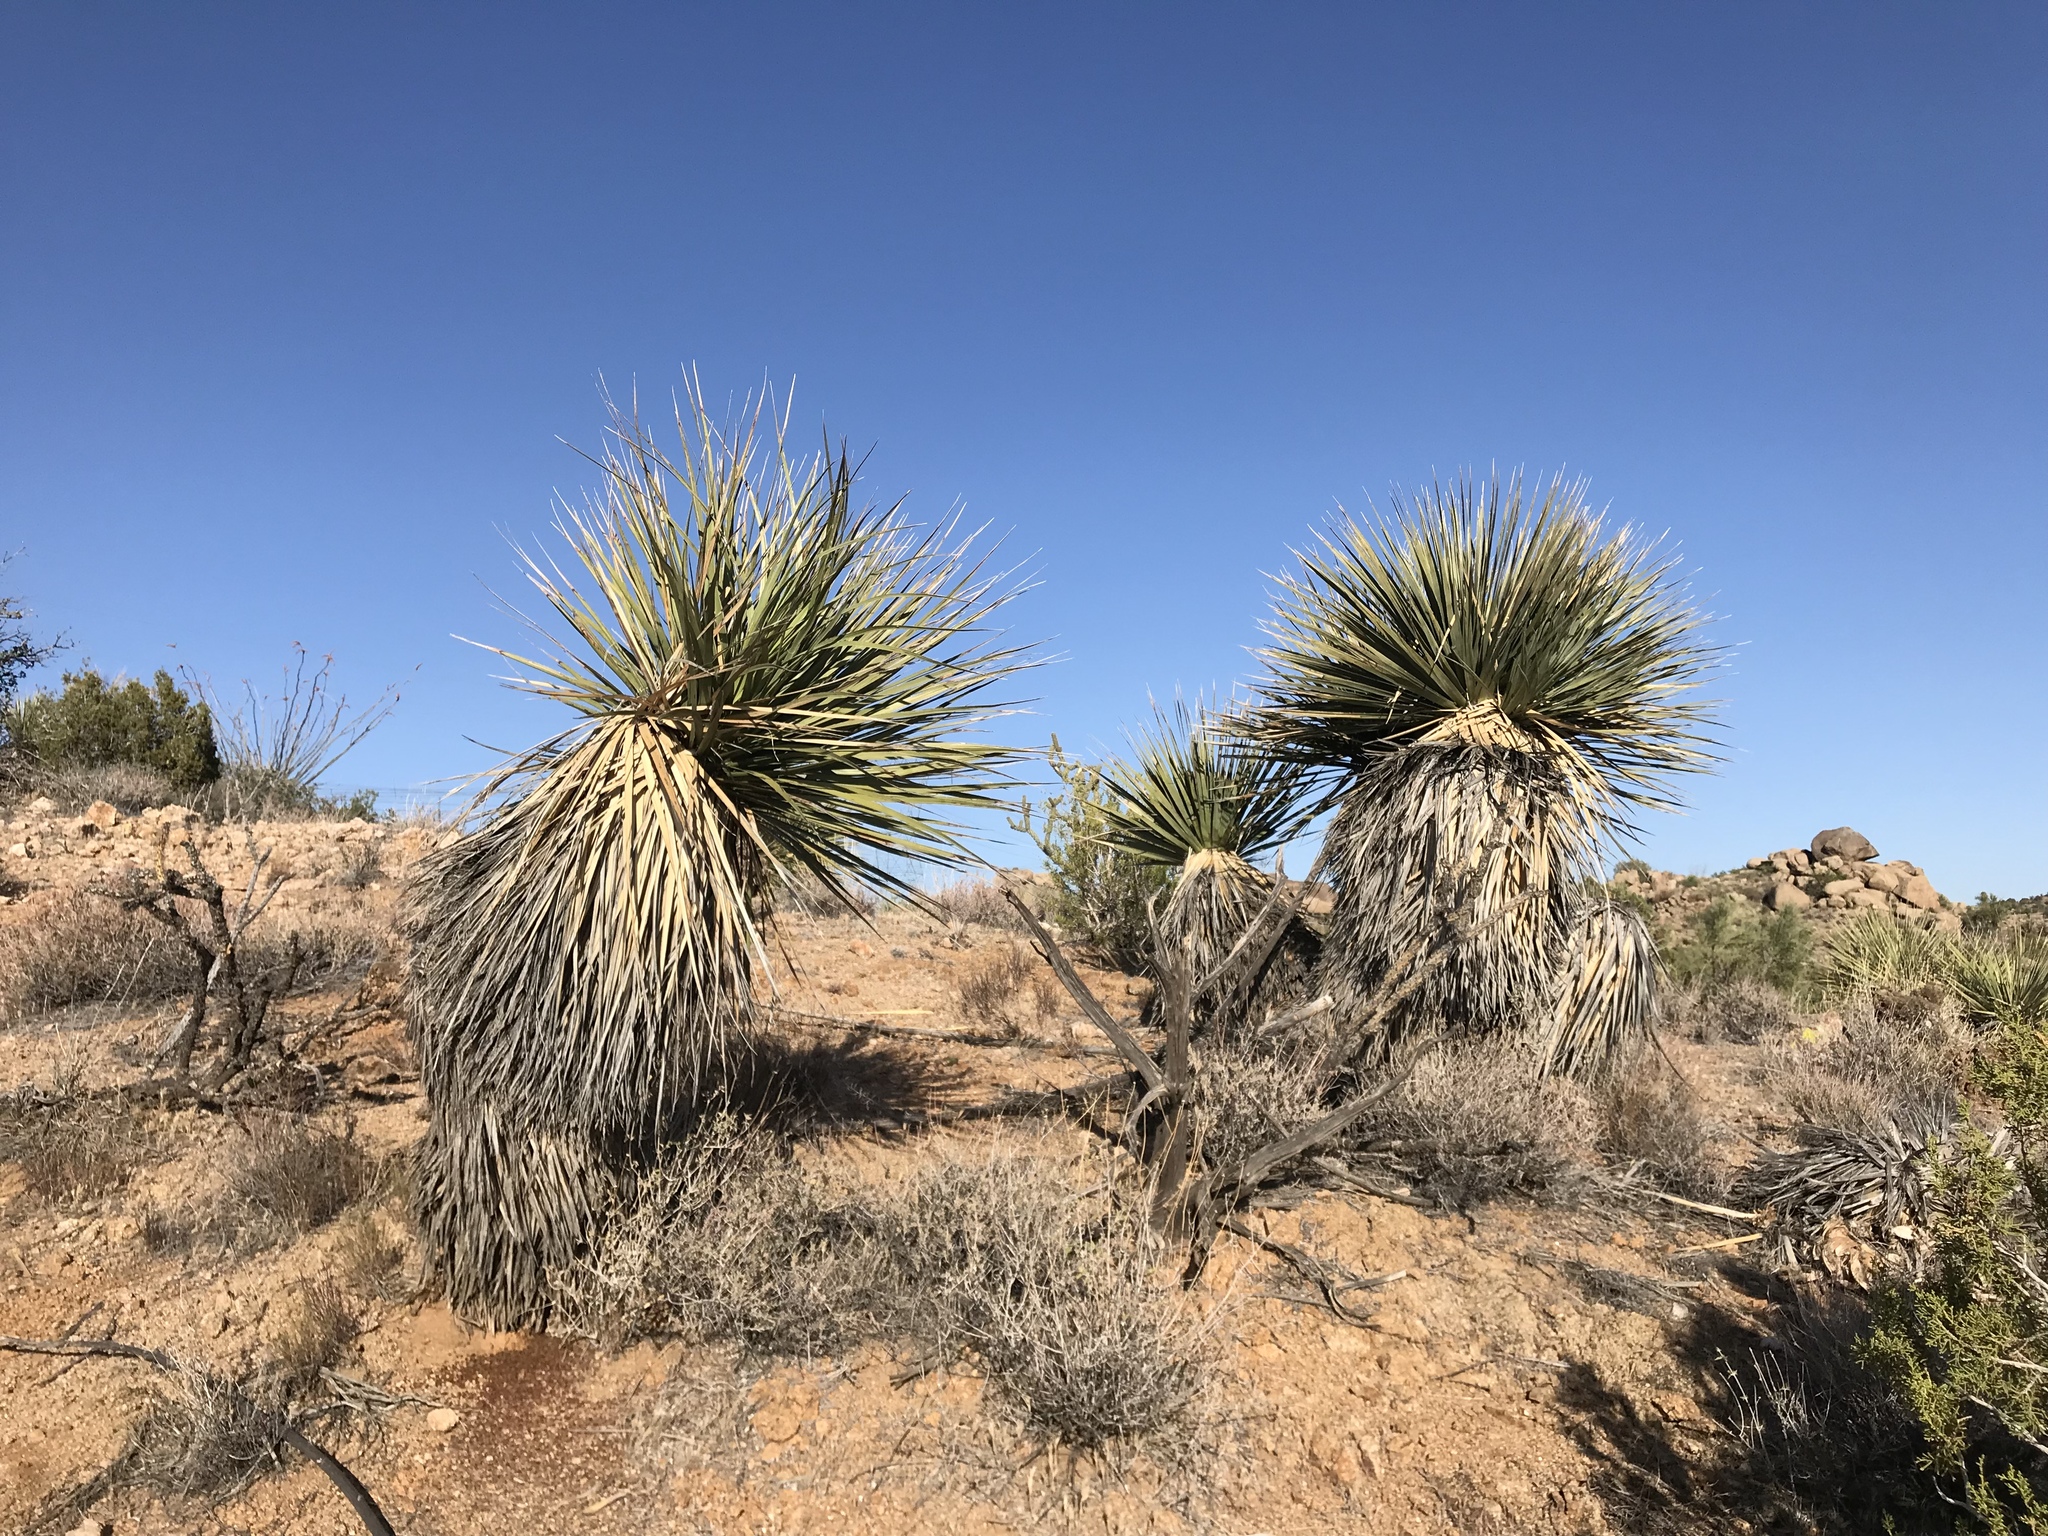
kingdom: Plantae
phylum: Tracheophyta
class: Liliopsida
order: Asparagales
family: Asparagaceae
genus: Nolina
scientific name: Nolina bigelovii
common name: Bigelow bear-grass
